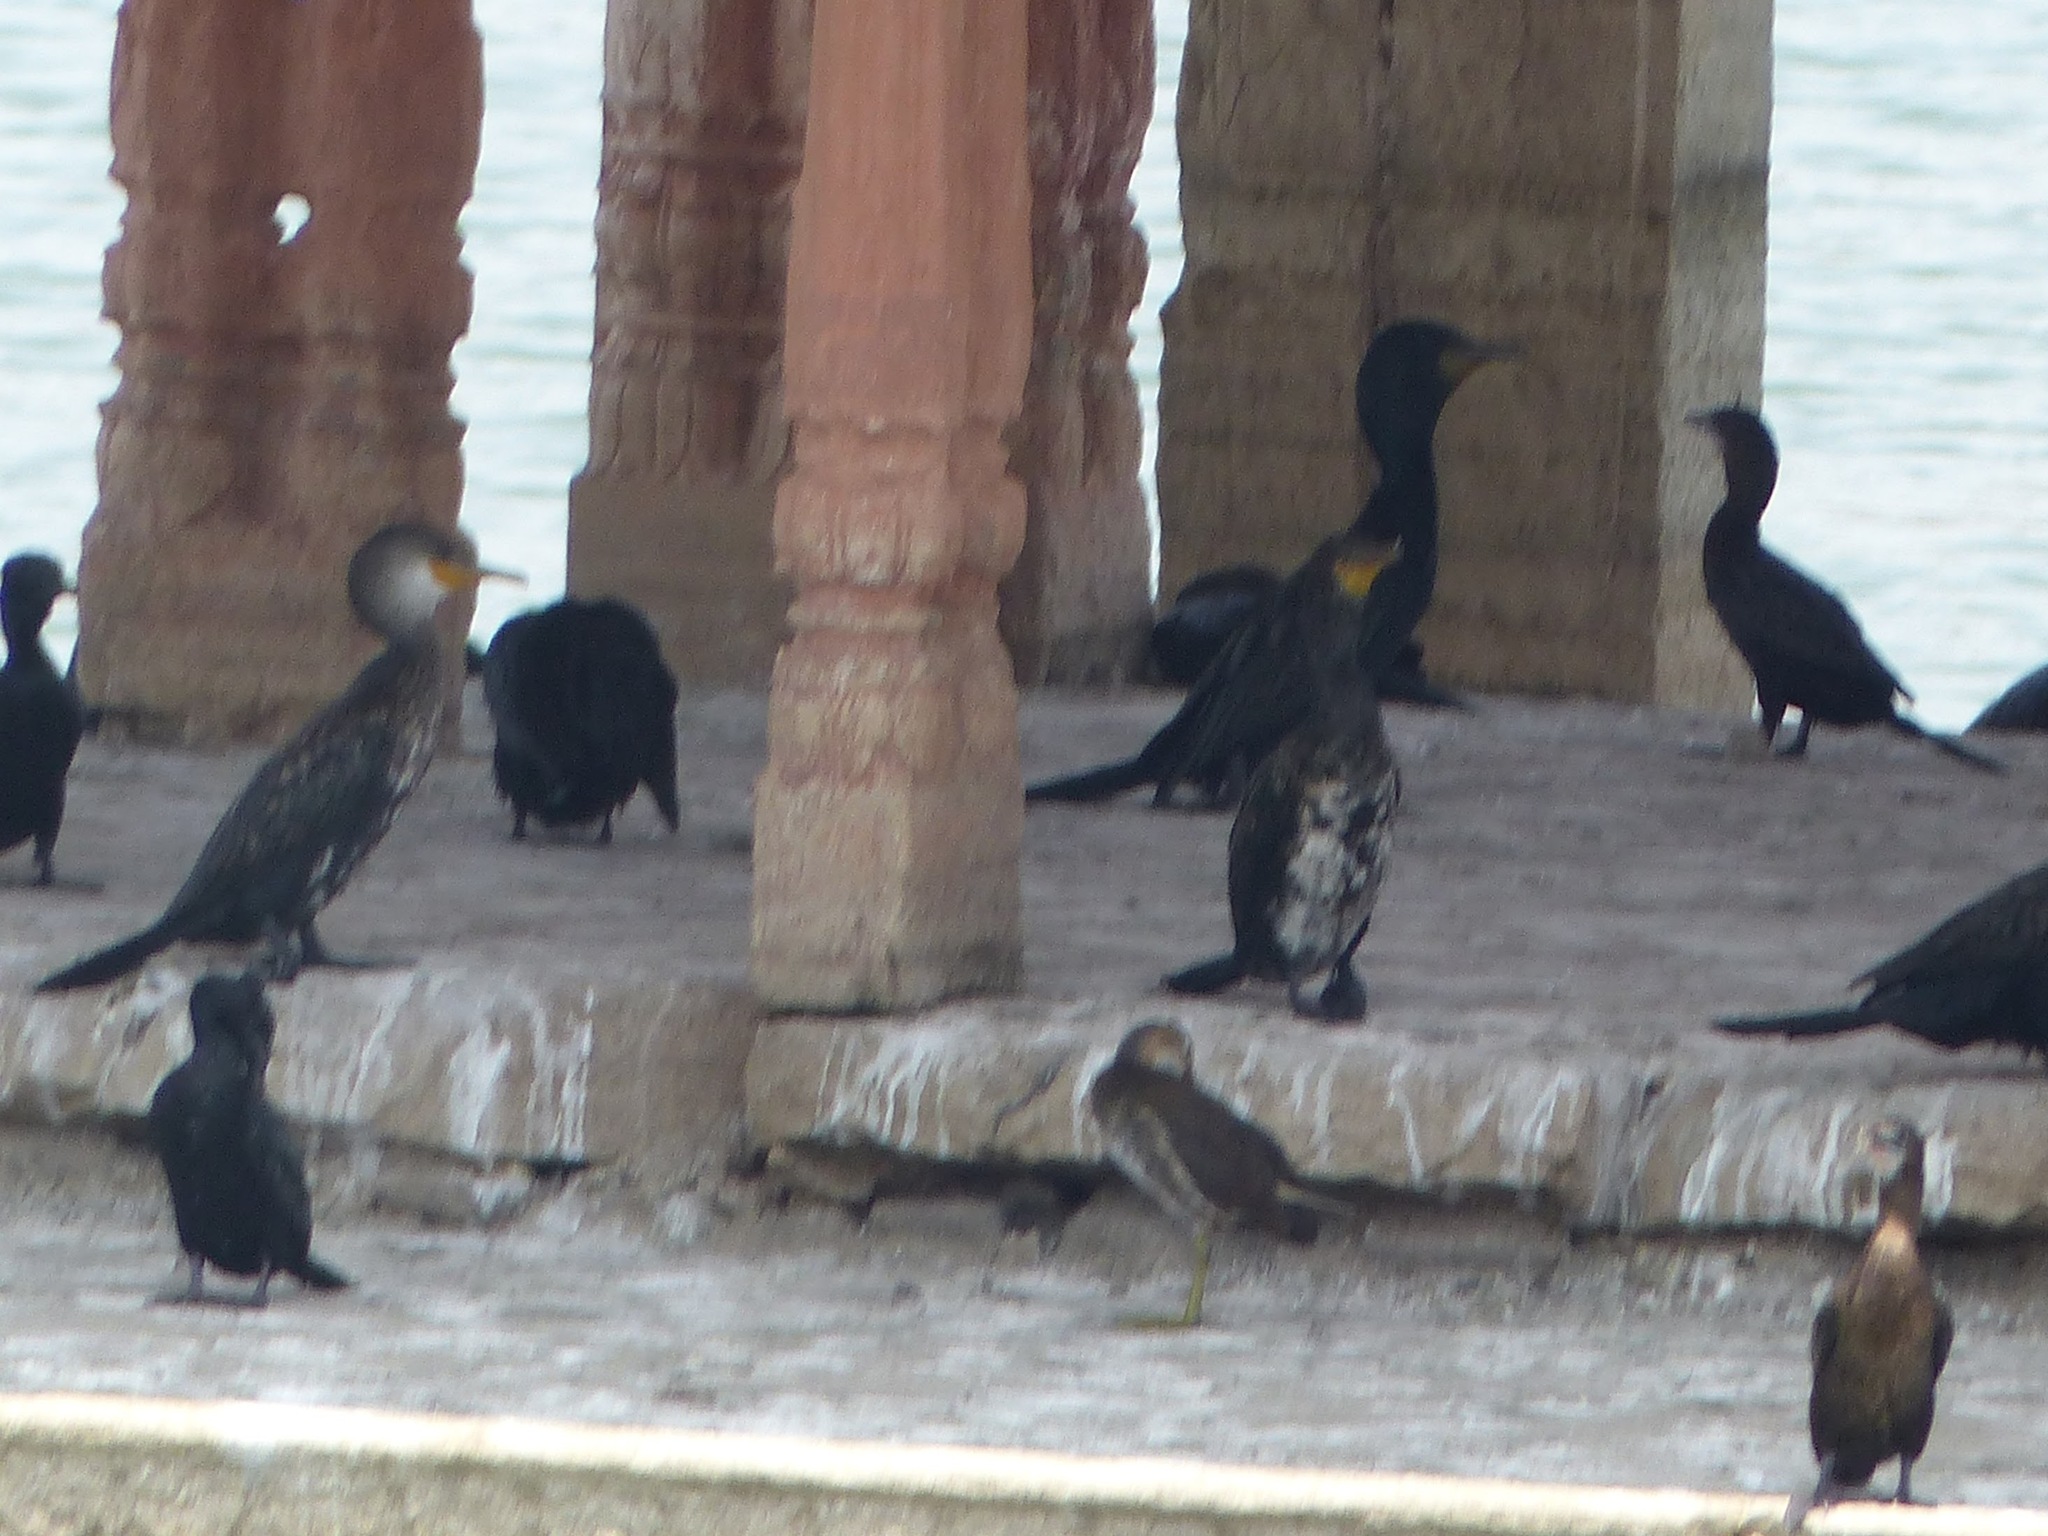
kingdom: Animalia
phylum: Chordata
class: Aves
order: Suliformes
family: Phalacrocoracidae
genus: Phalacrocorax
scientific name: Phalacrocorax carbo
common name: Great cormorant
